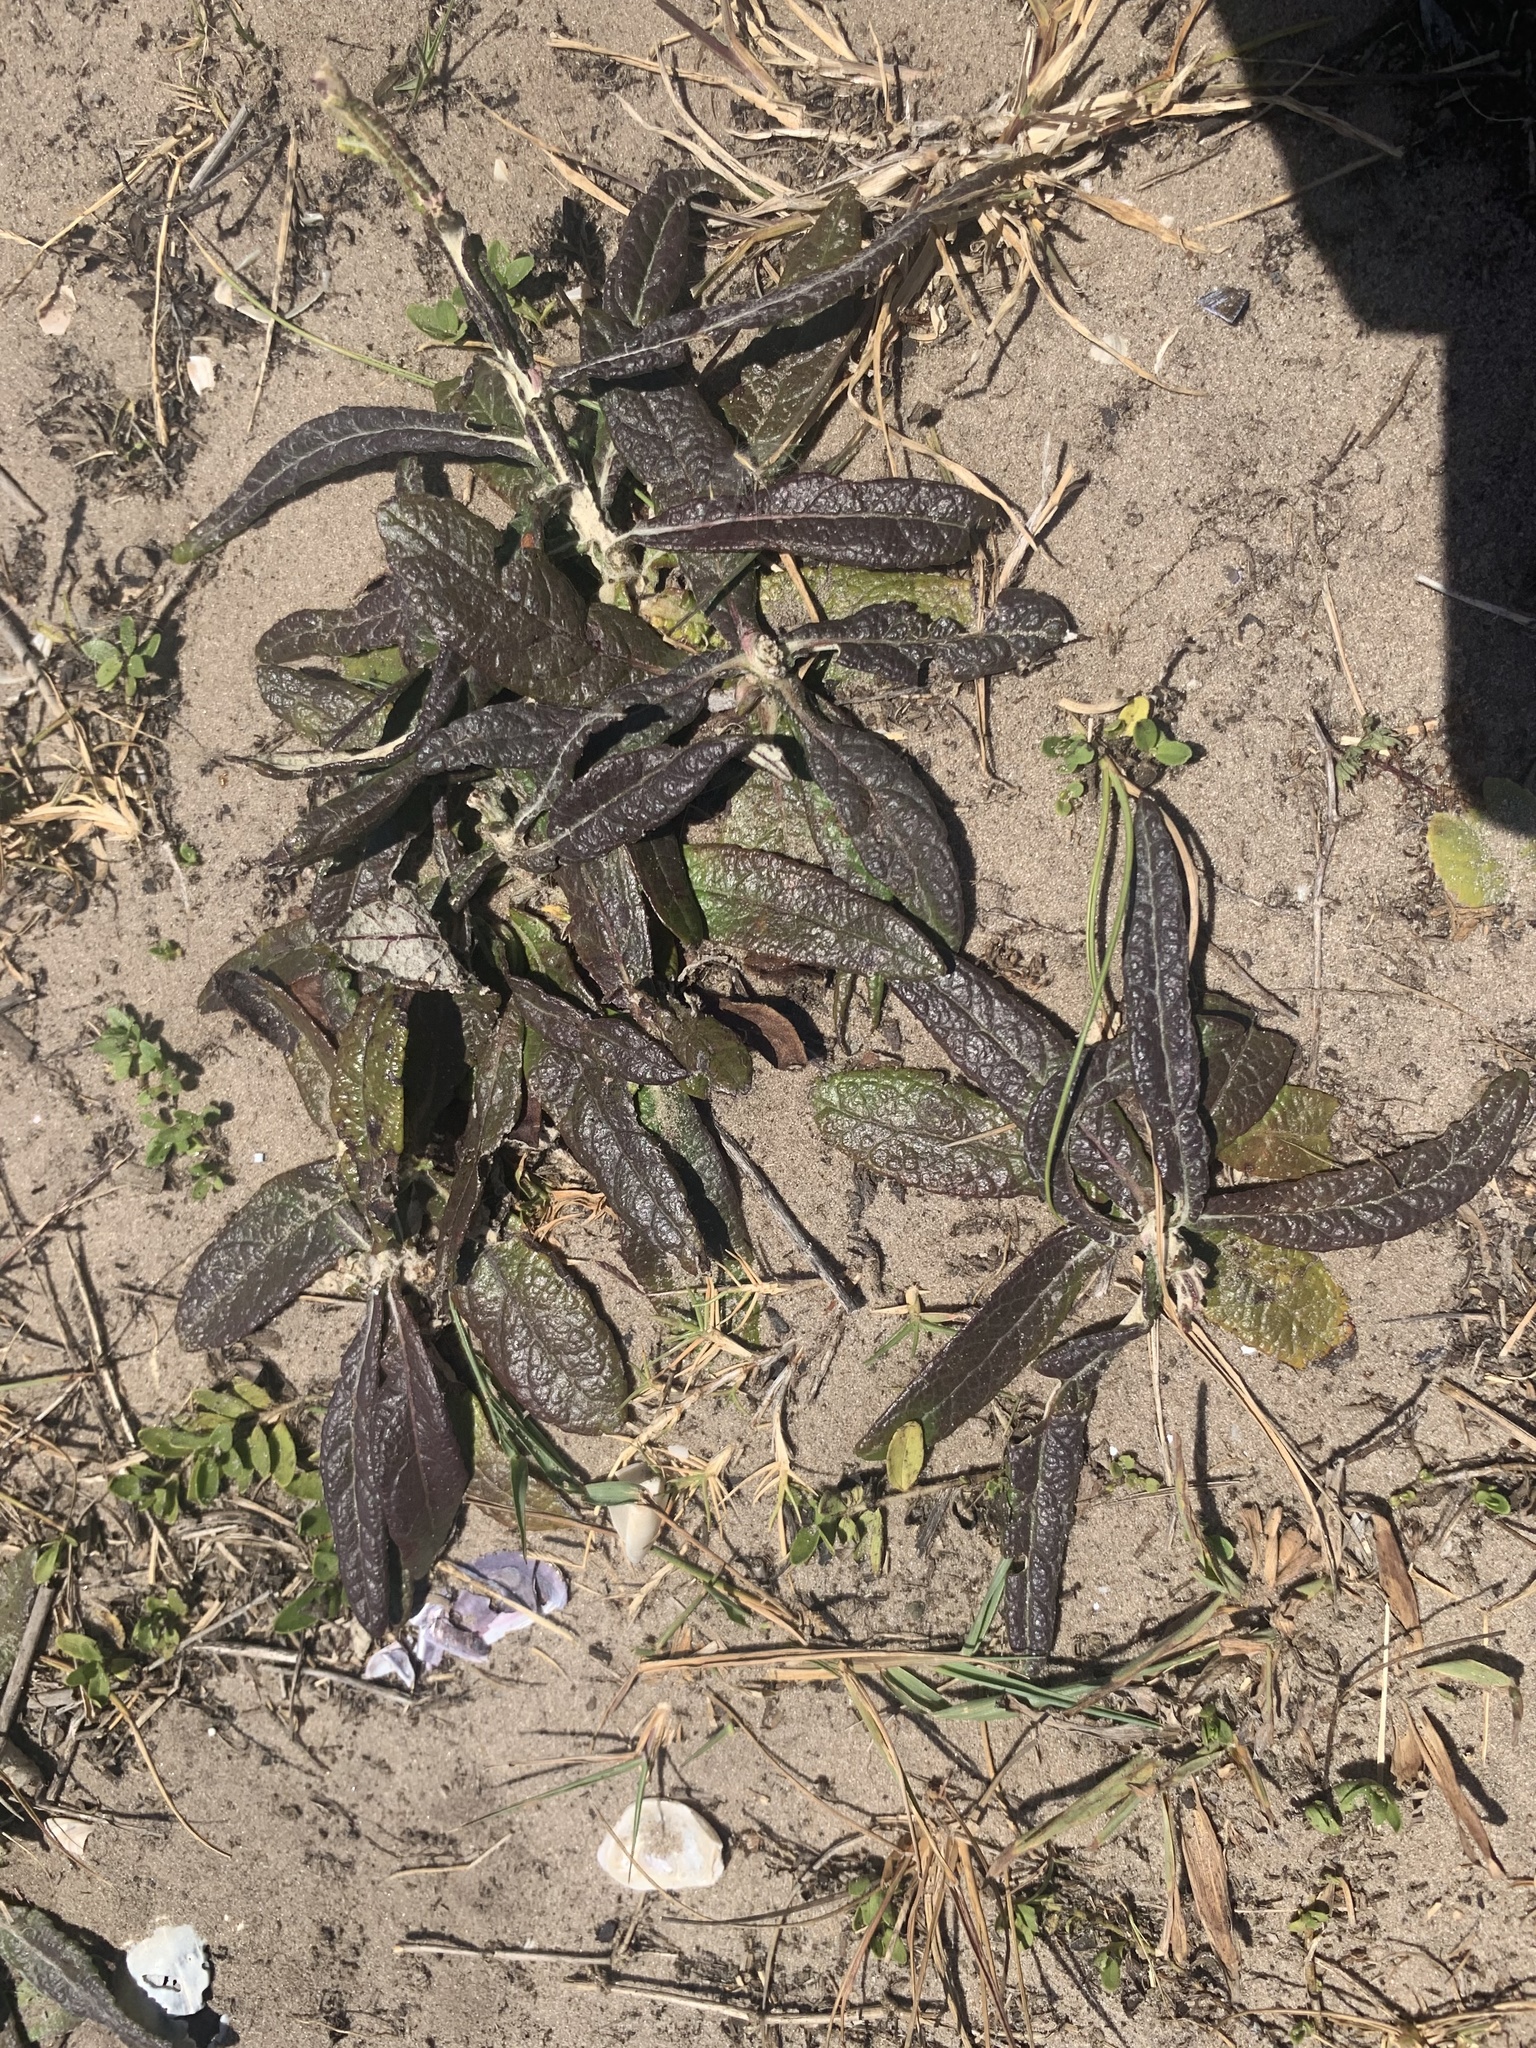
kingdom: Plantae
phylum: Tracheophyta
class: Magnoliopsida
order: Asterales
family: Asteraceae
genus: Pterocaulon
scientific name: Pterocaulon lorentzii
